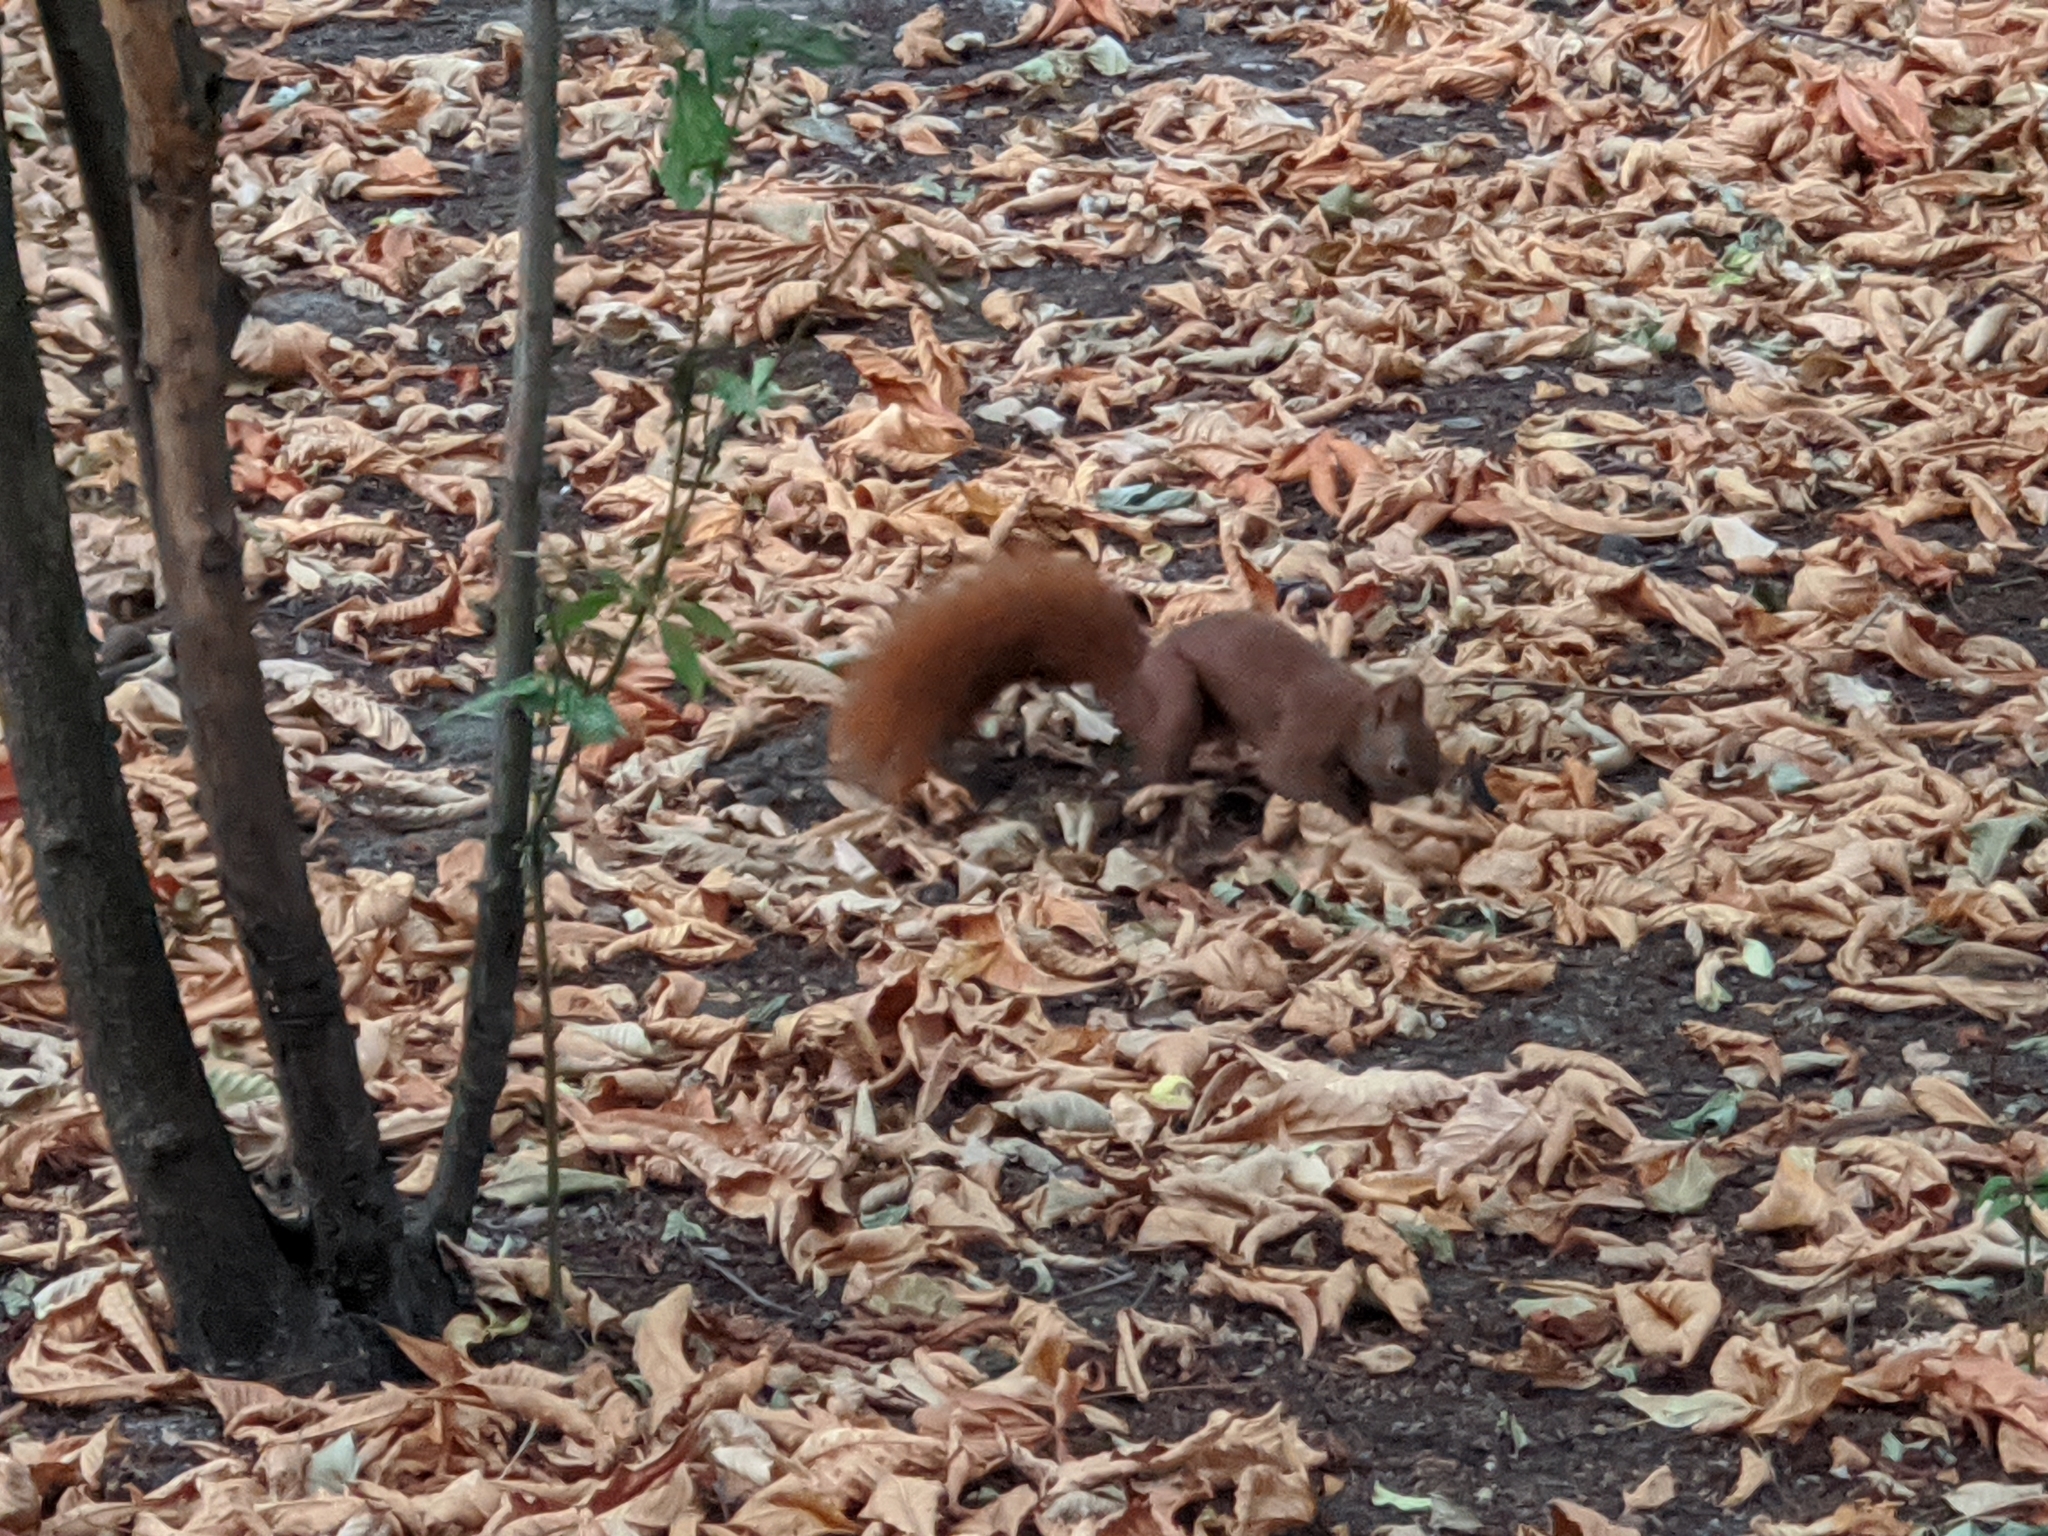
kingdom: Animalia
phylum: Chordata
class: Mammalia
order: Rodentia
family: Sciuridae
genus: Sciurus
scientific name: Sciurus vulgaris
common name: Eurasian red squirrel
